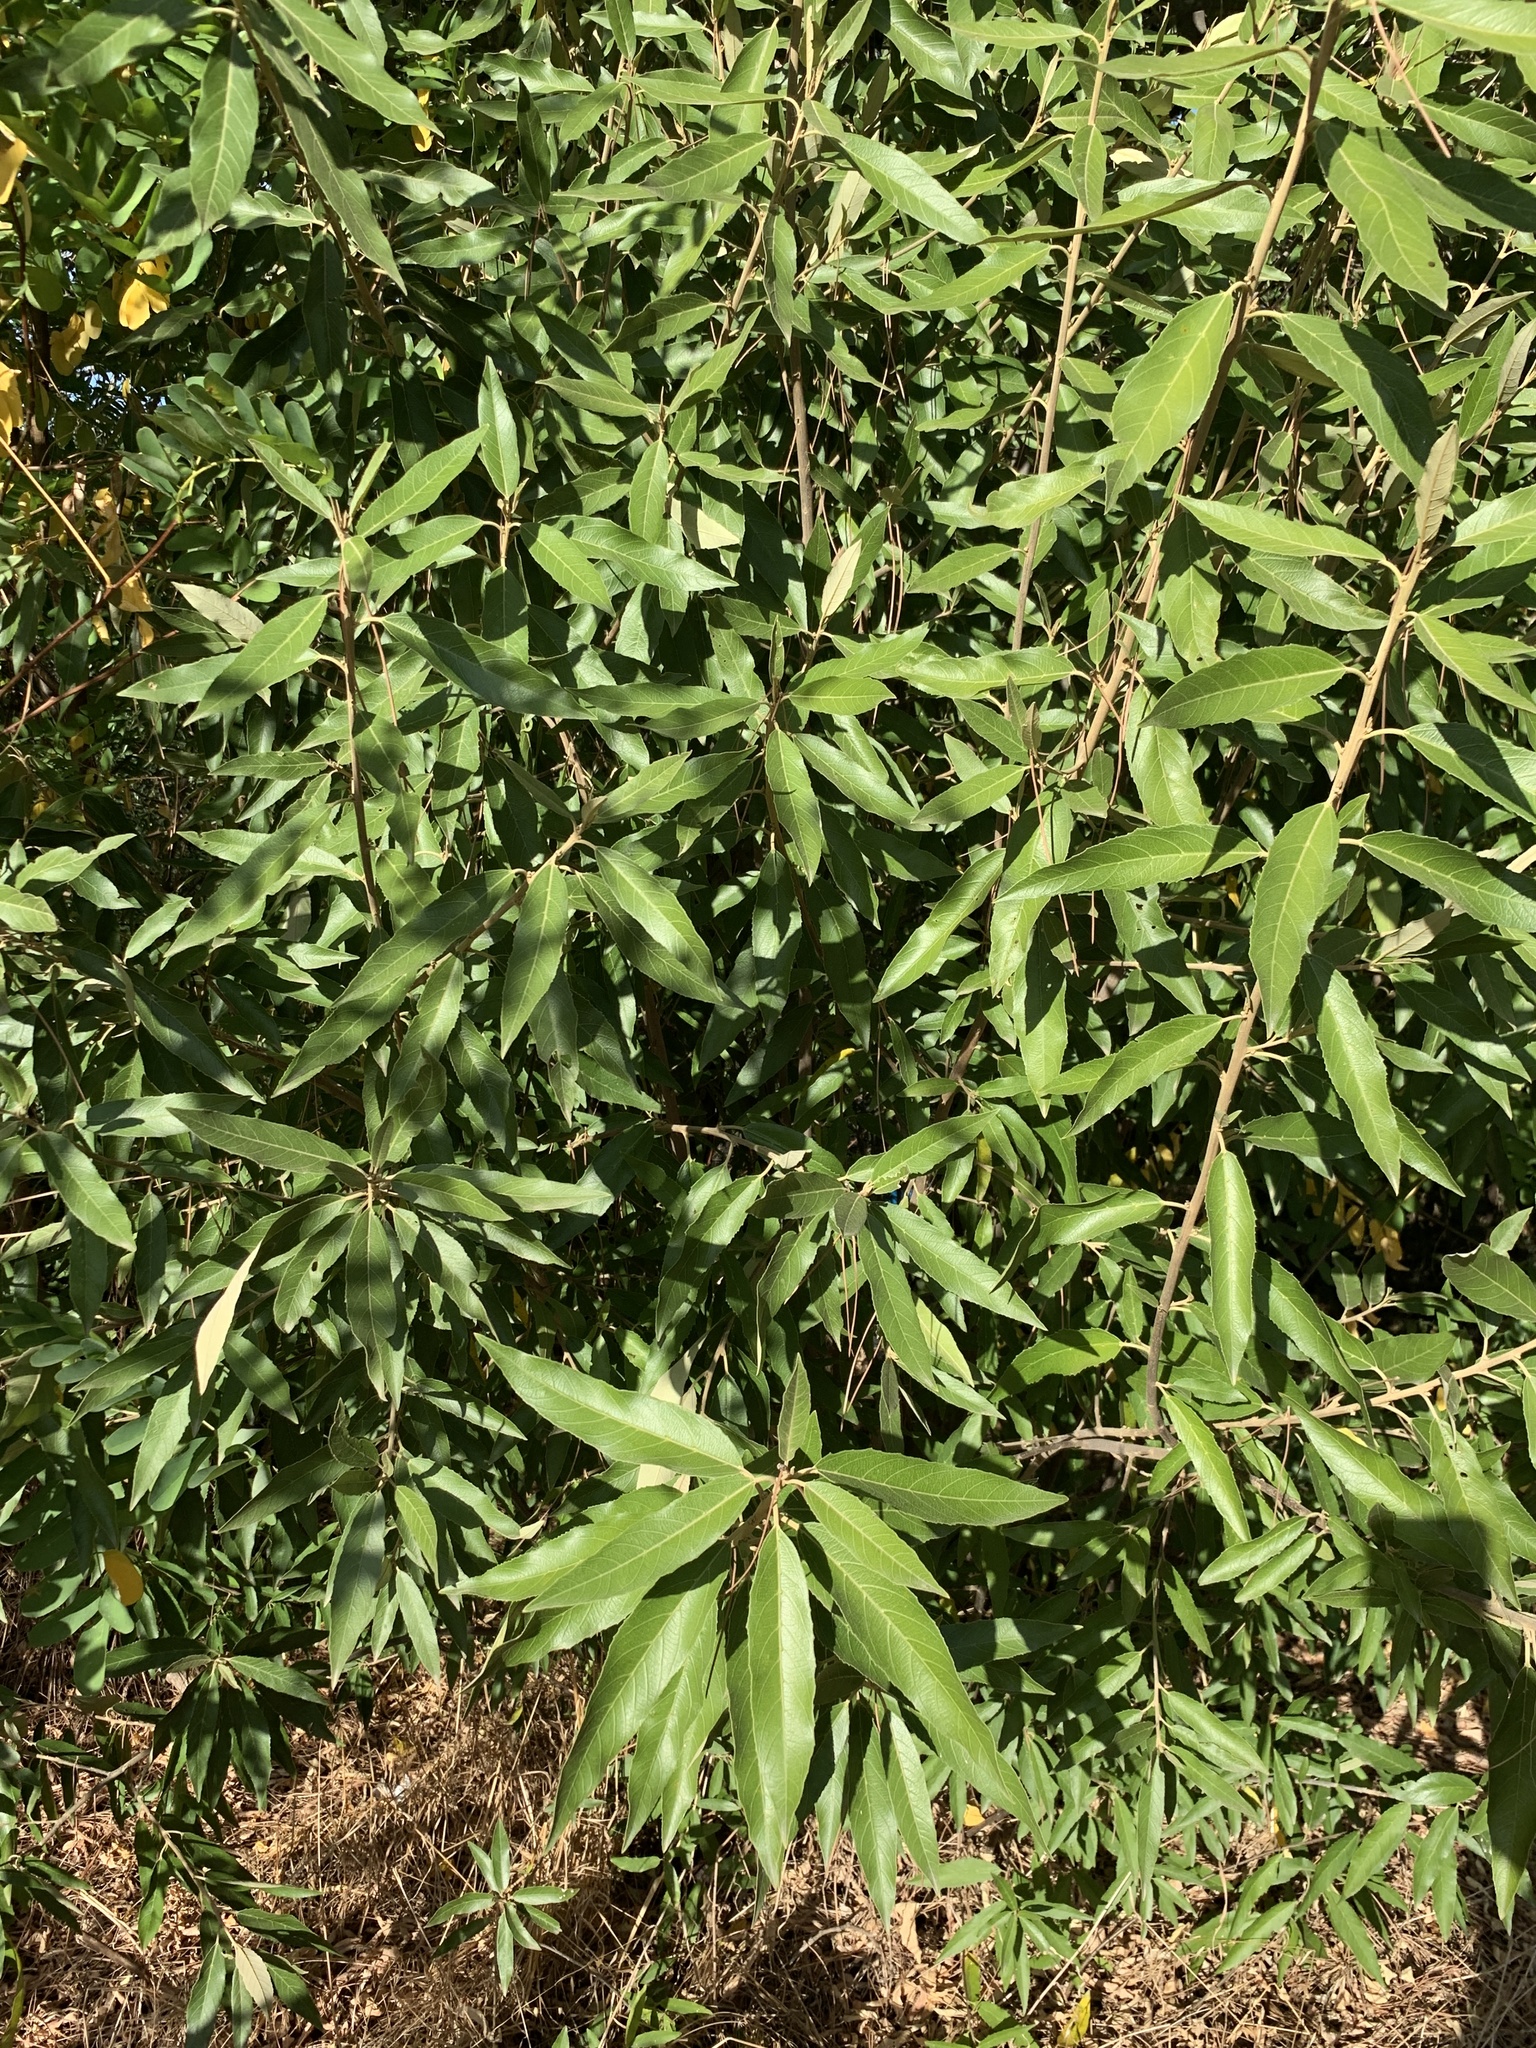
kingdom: Plantae
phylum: Tracheophyta
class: Magnoliopsida
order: Malpighiales
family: Achariaceae
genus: Kiggelaria
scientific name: Kiggelaria africana
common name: Wild peach
